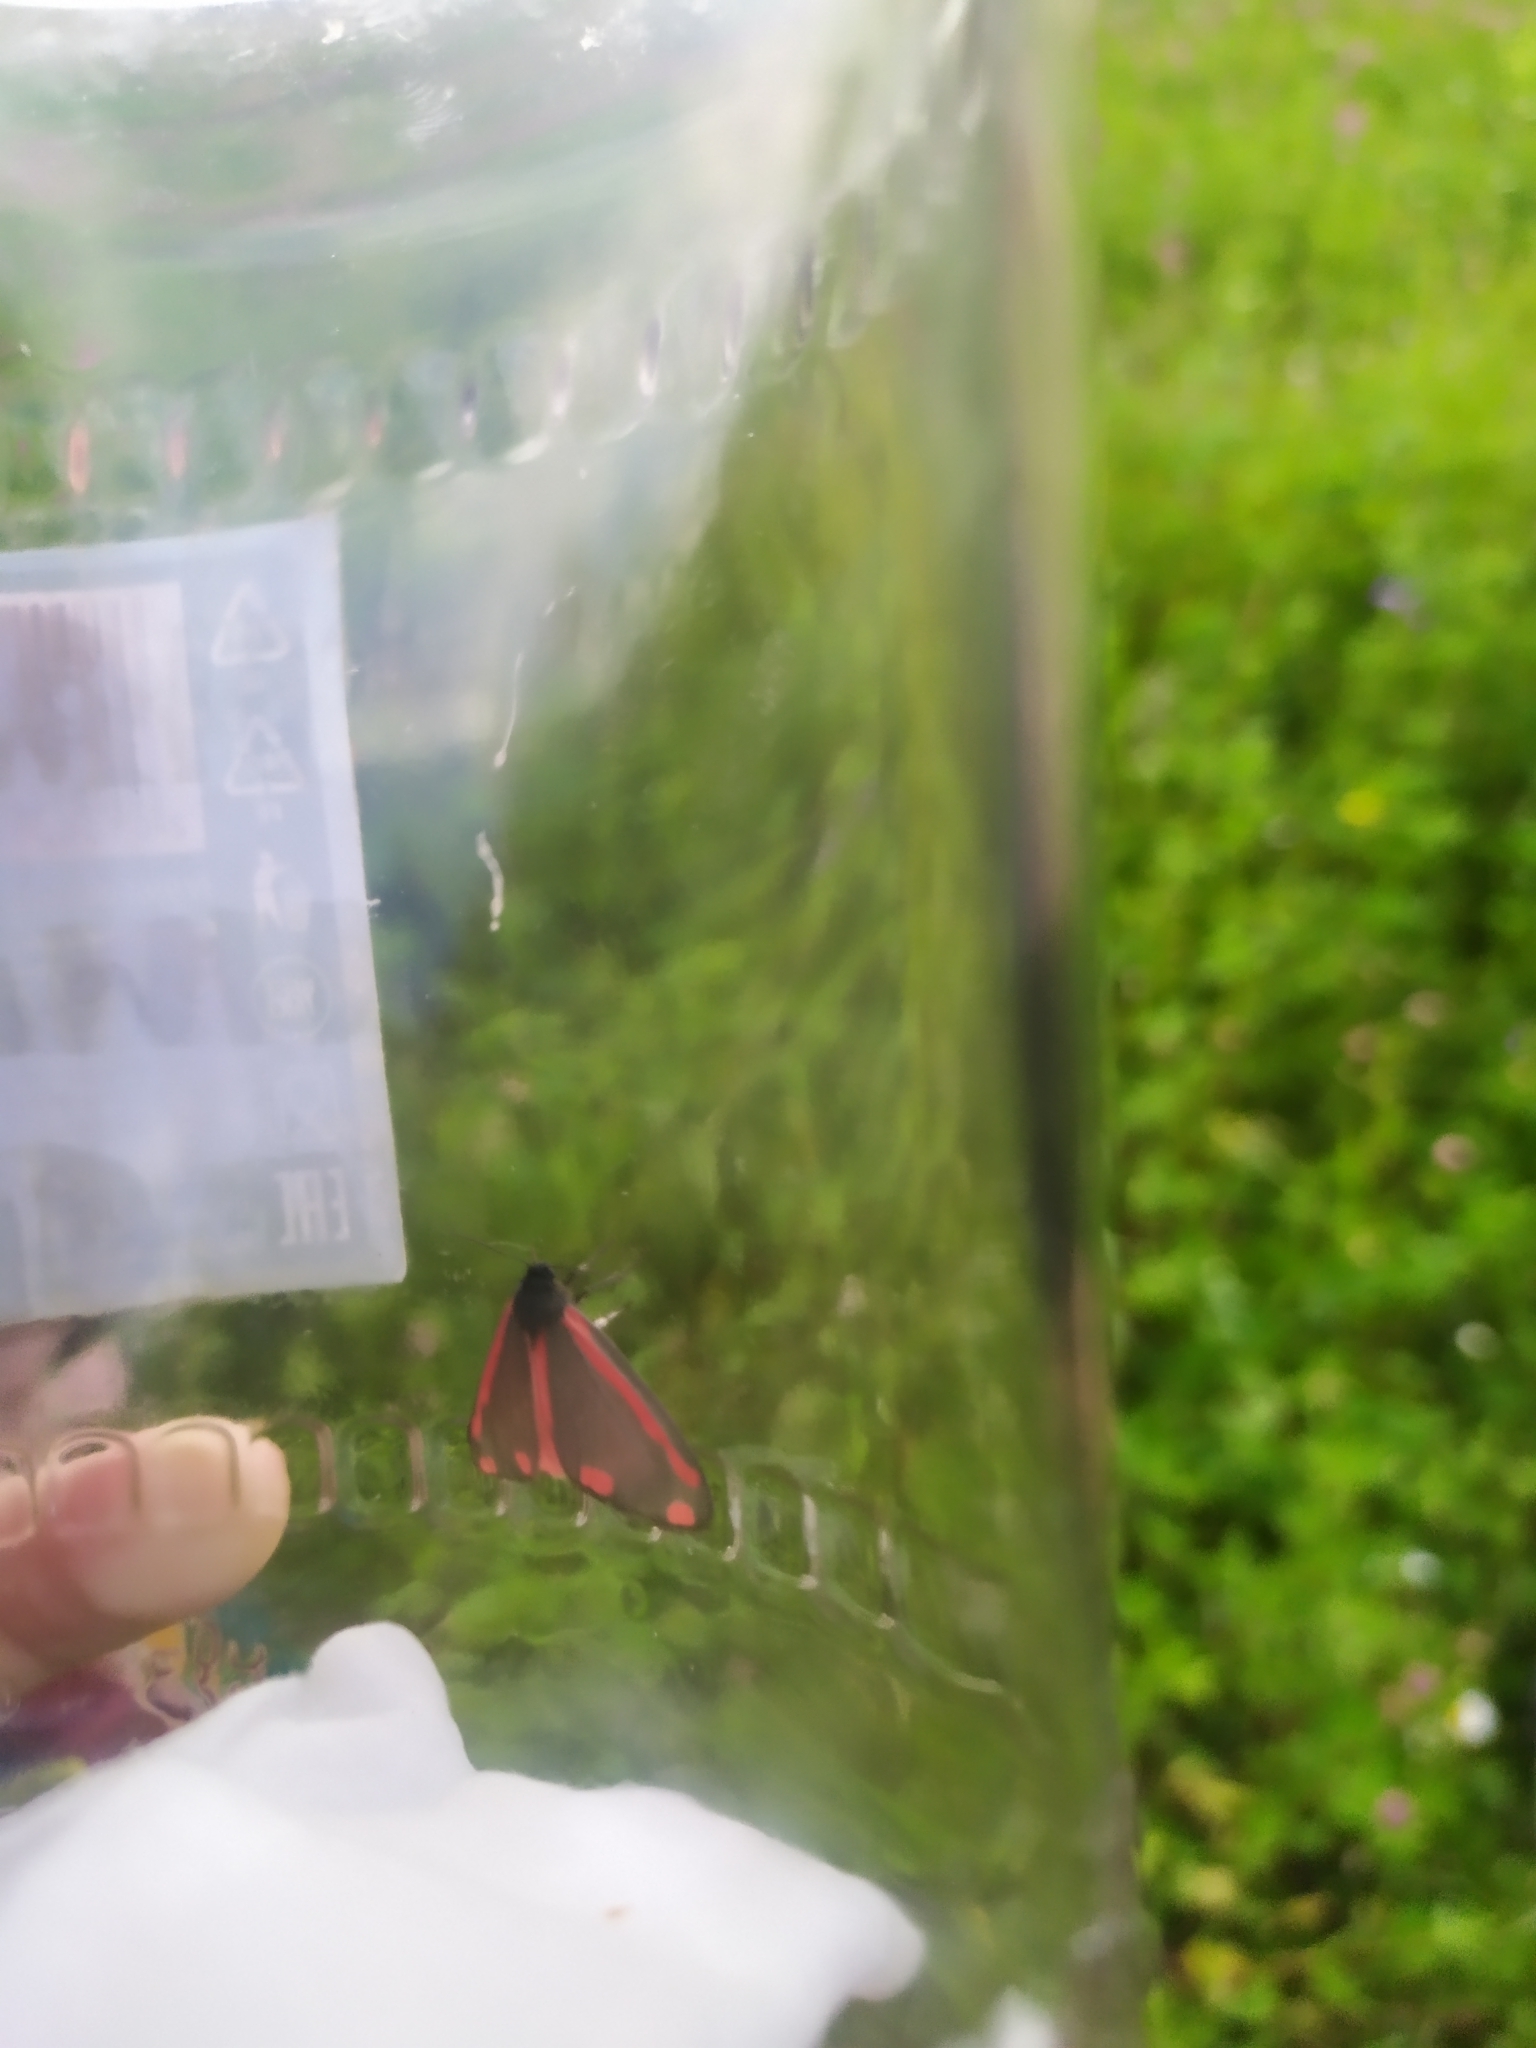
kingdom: Animalia
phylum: Arthropoda
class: Insecta
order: Lepidoptera
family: Erebidae
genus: Tyria
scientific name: Tyria jacobaeae
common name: Cinnabar
